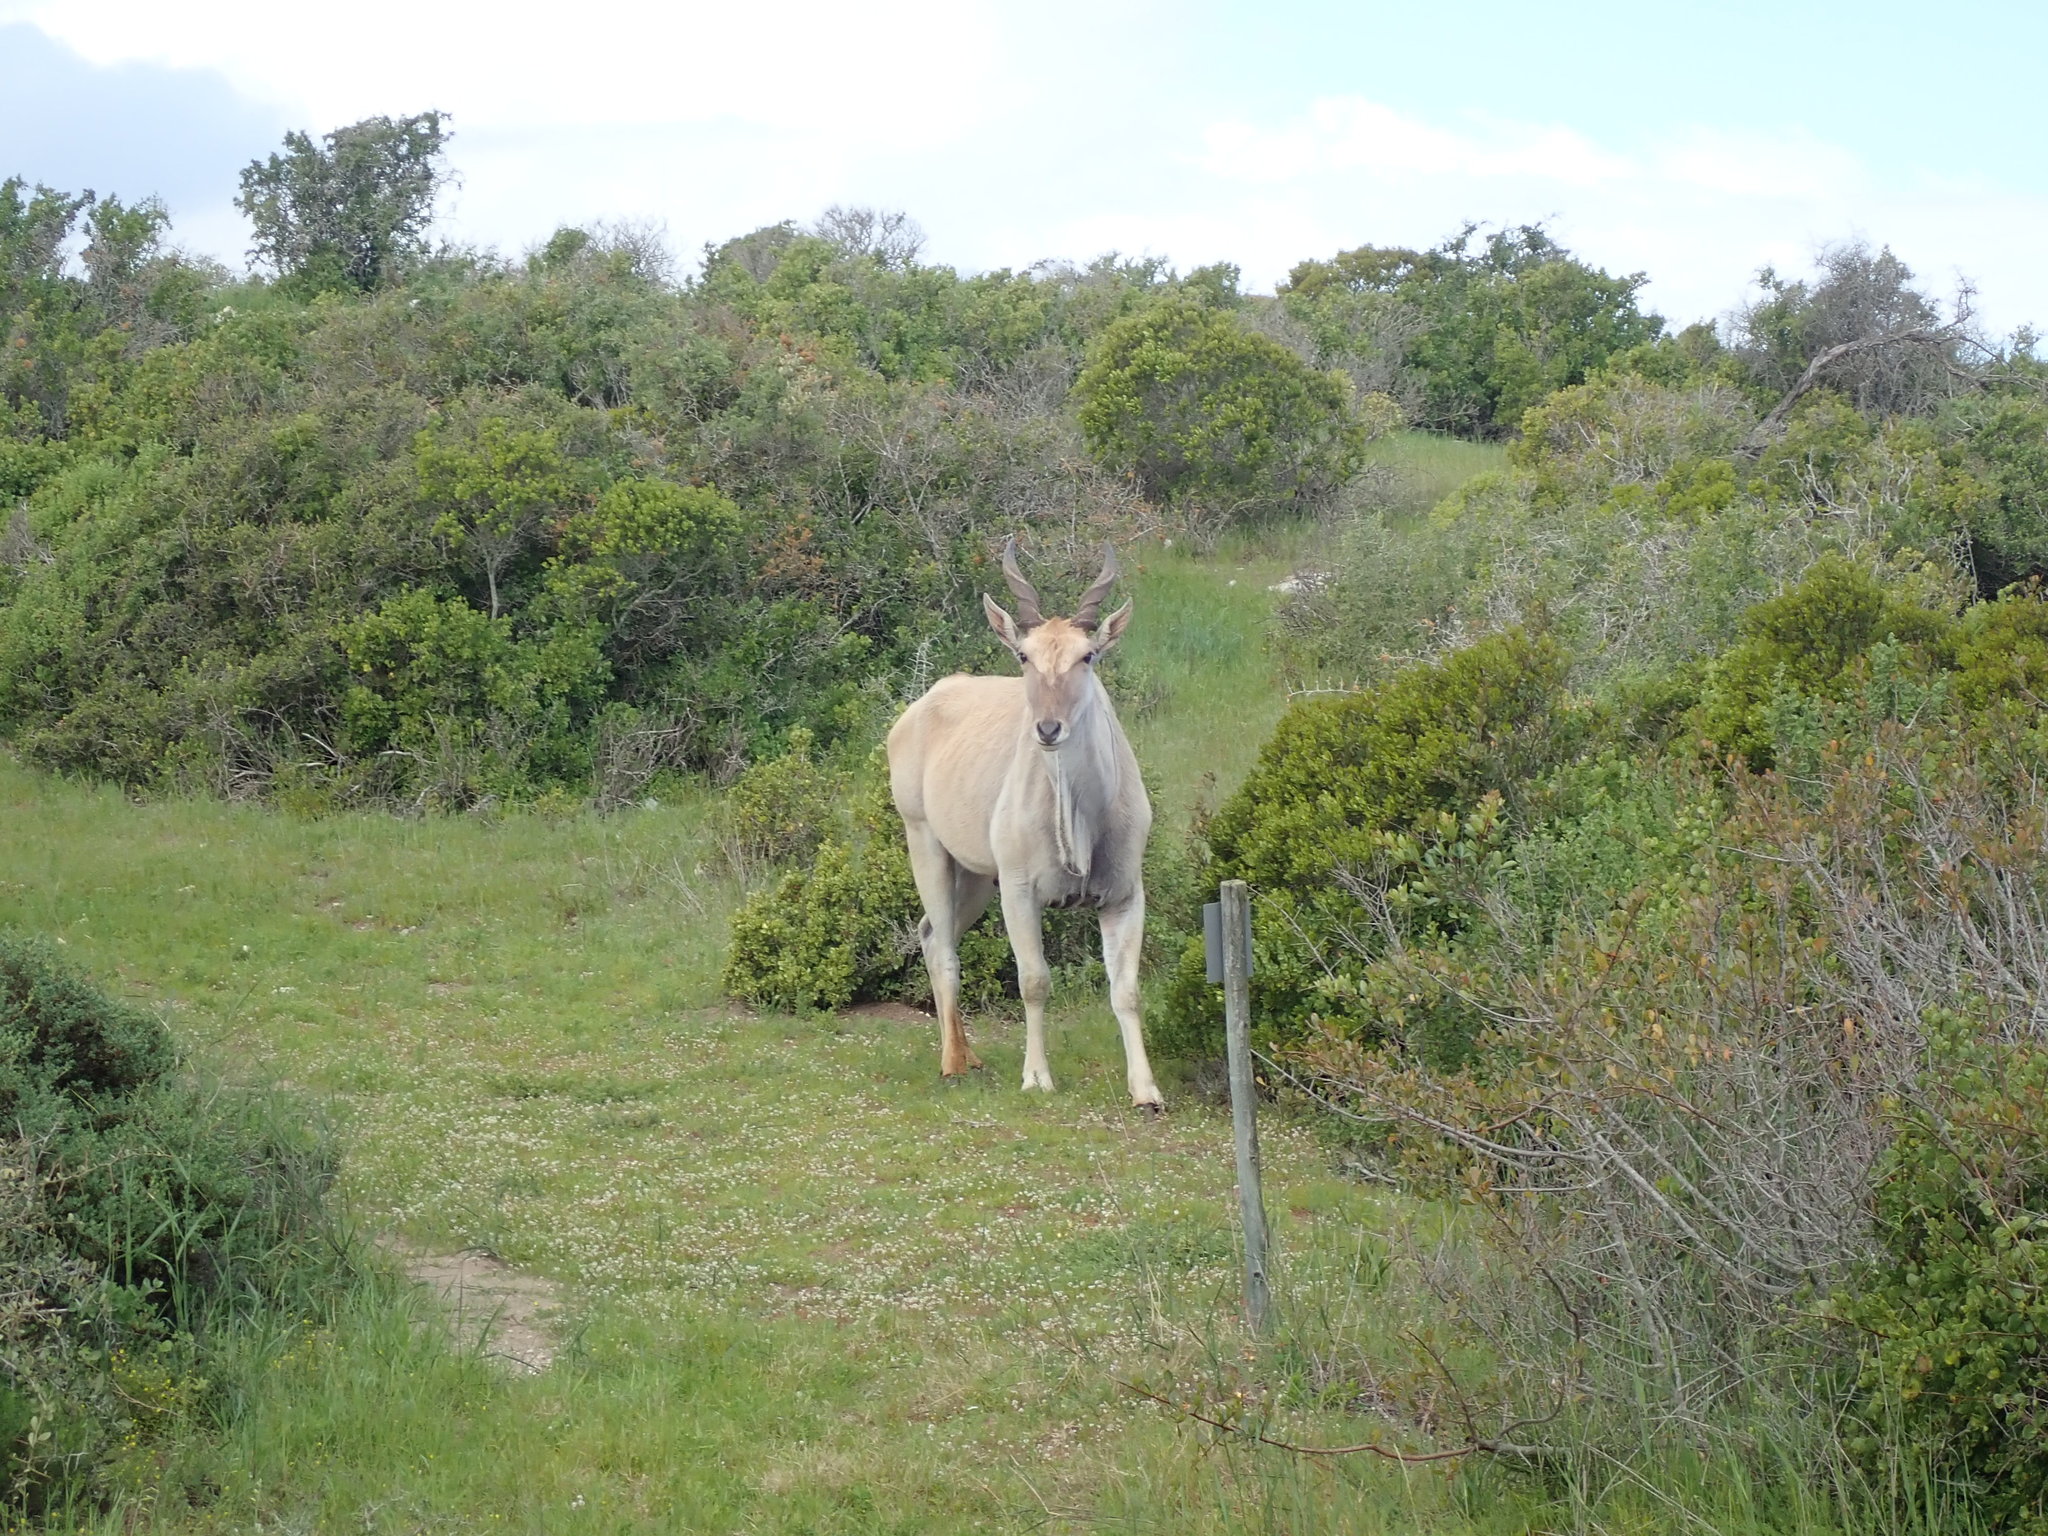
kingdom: Animalia
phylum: Chordata
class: Mammalia
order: Artiodactyla
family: Bovidae
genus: Taurotragus
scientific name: Taurotragus oryx
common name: Common eland
